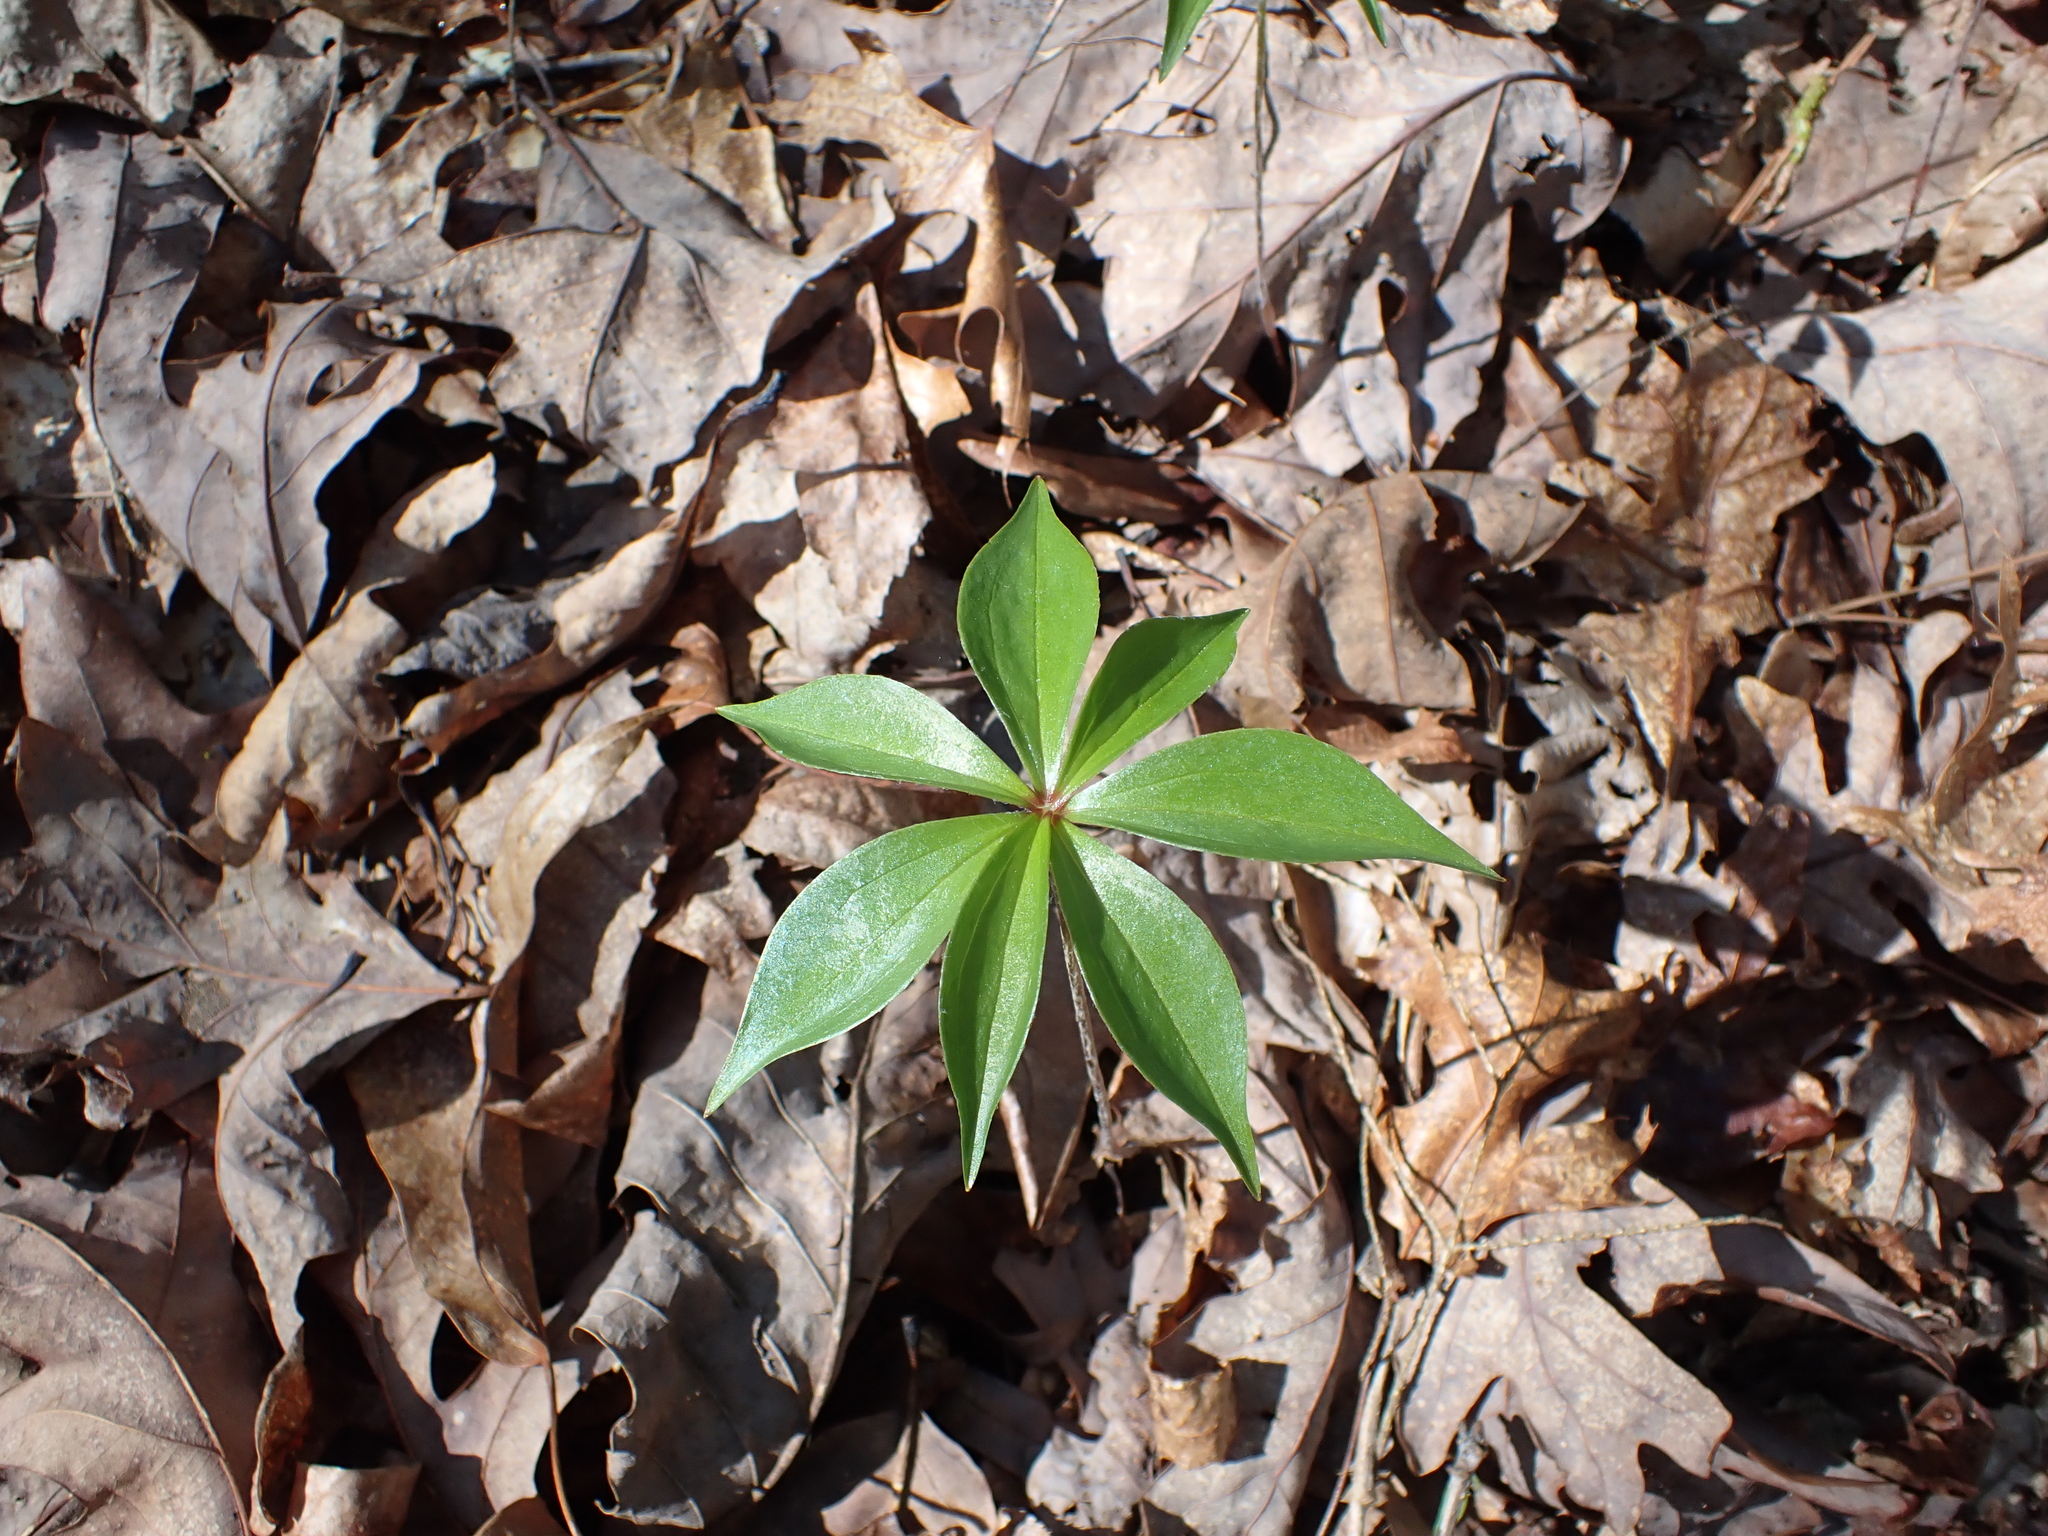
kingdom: Plantae
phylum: Tracheophyta
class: Liliopsida
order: Liliales
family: Liliaceae
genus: Medeola
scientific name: Medeola virginiana
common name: Indian cucumber-root
